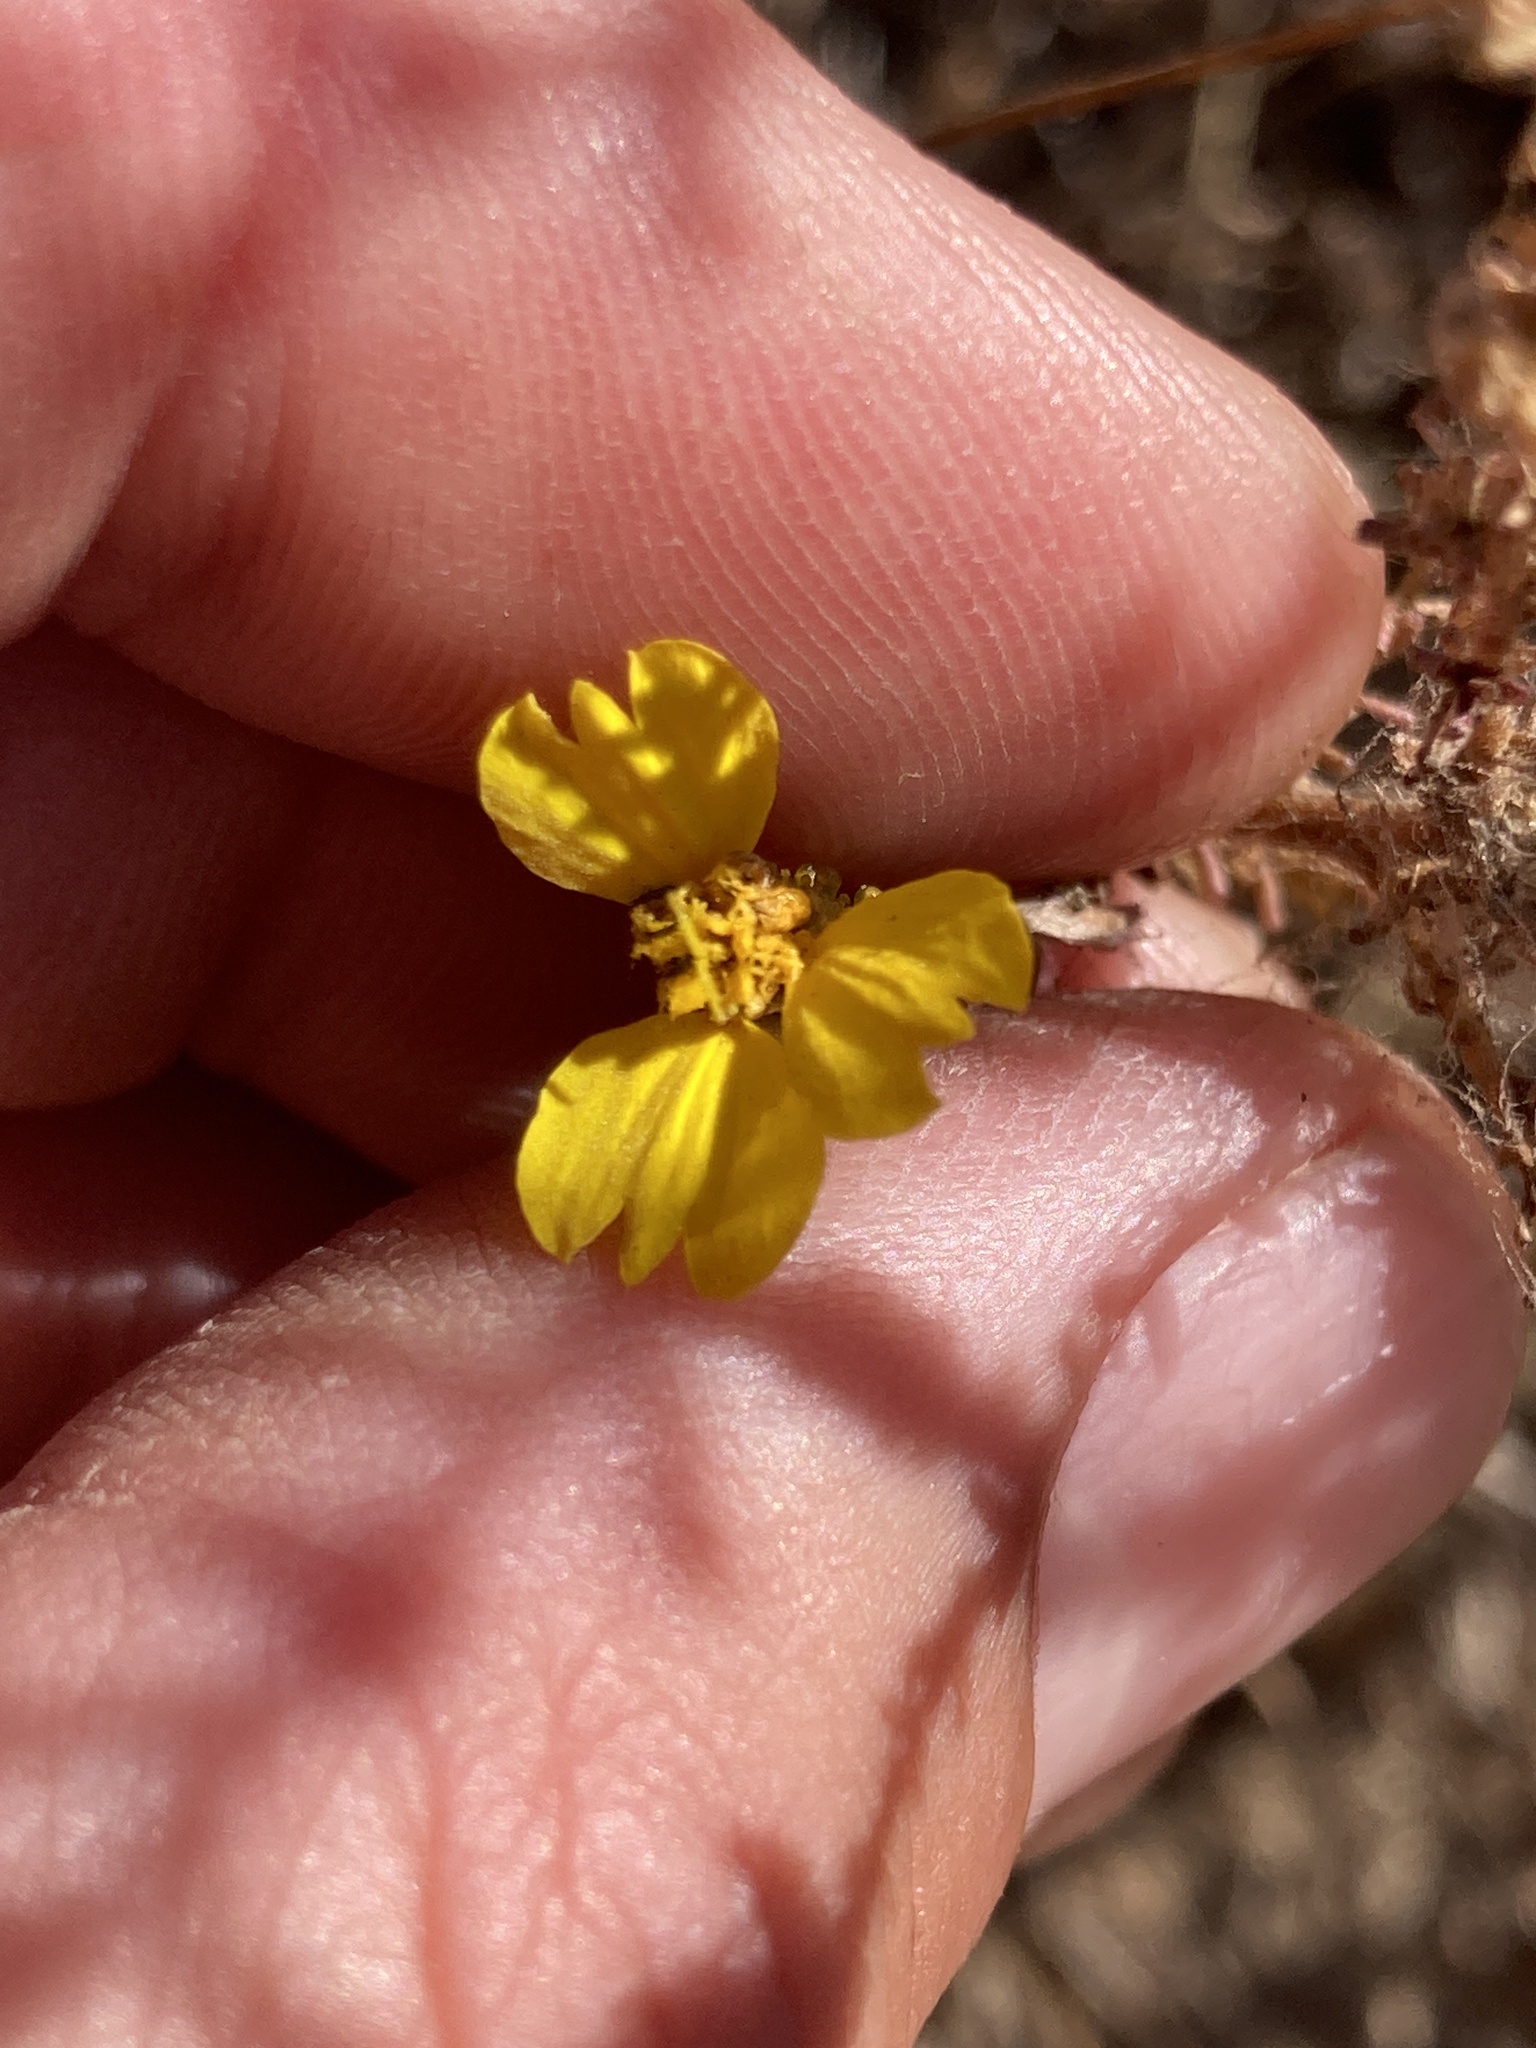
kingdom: Plantae
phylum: Tracheophyta
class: Magnoliopsida
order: Asterales
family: Asteraceae
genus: Holocarpha
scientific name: Holocarpha virgata
